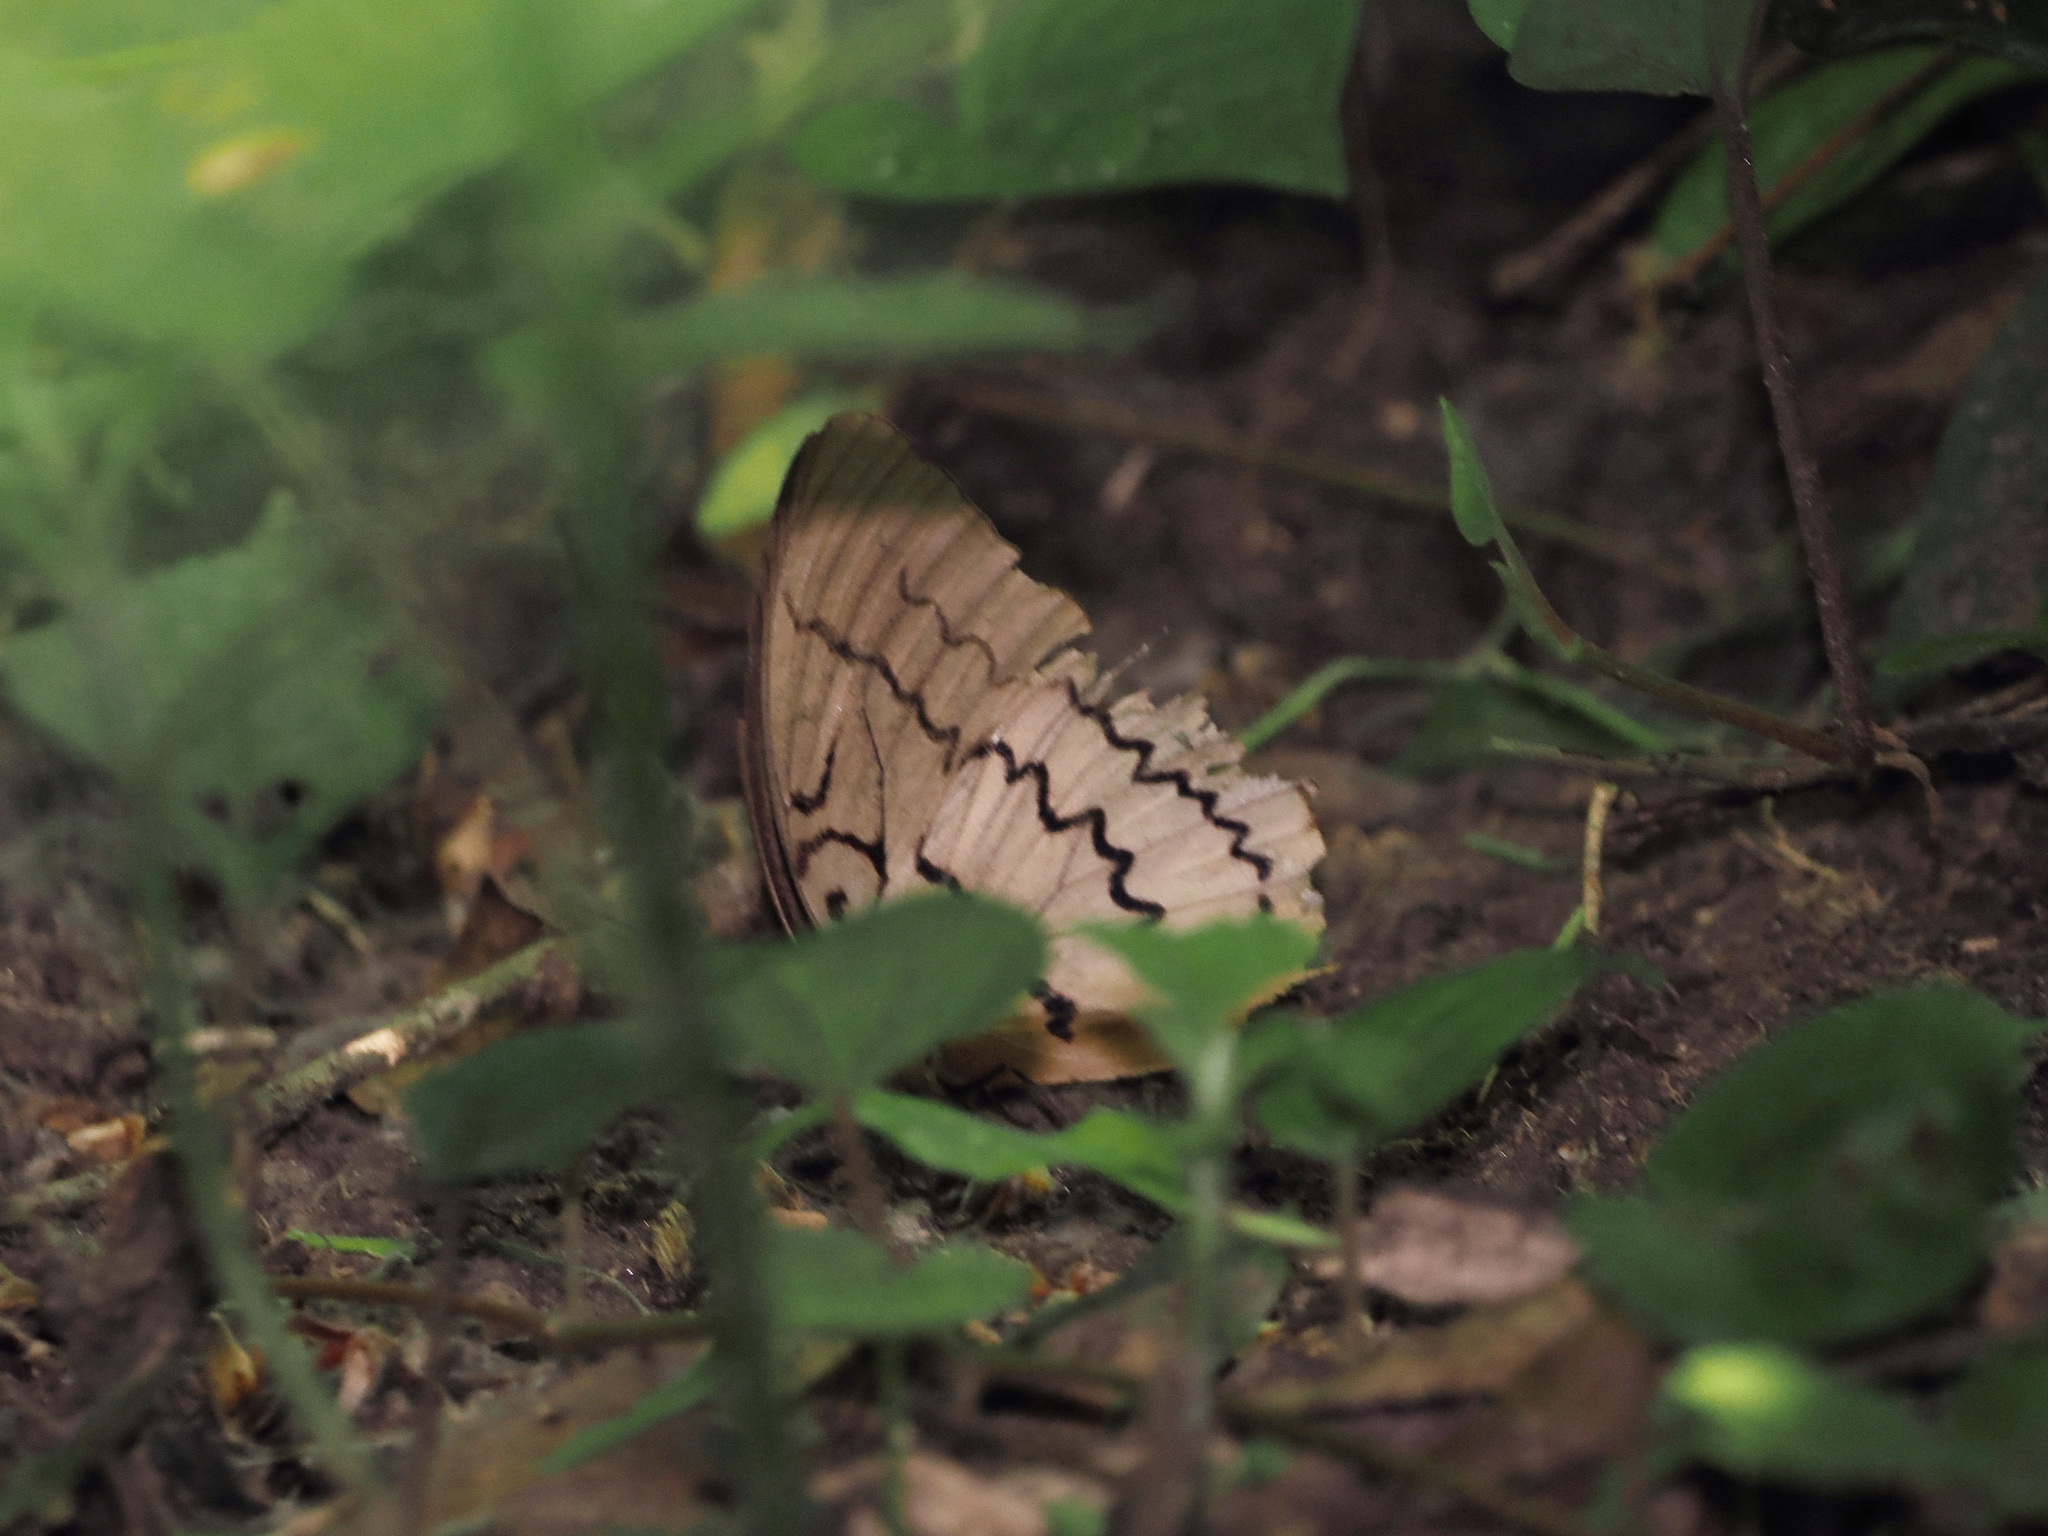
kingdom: Animalia
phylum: Arthropoda
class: Insecta
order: Lepidoptera
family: Nymphalidae
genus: Faunis
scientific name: Faunis Melanocyma faunula
